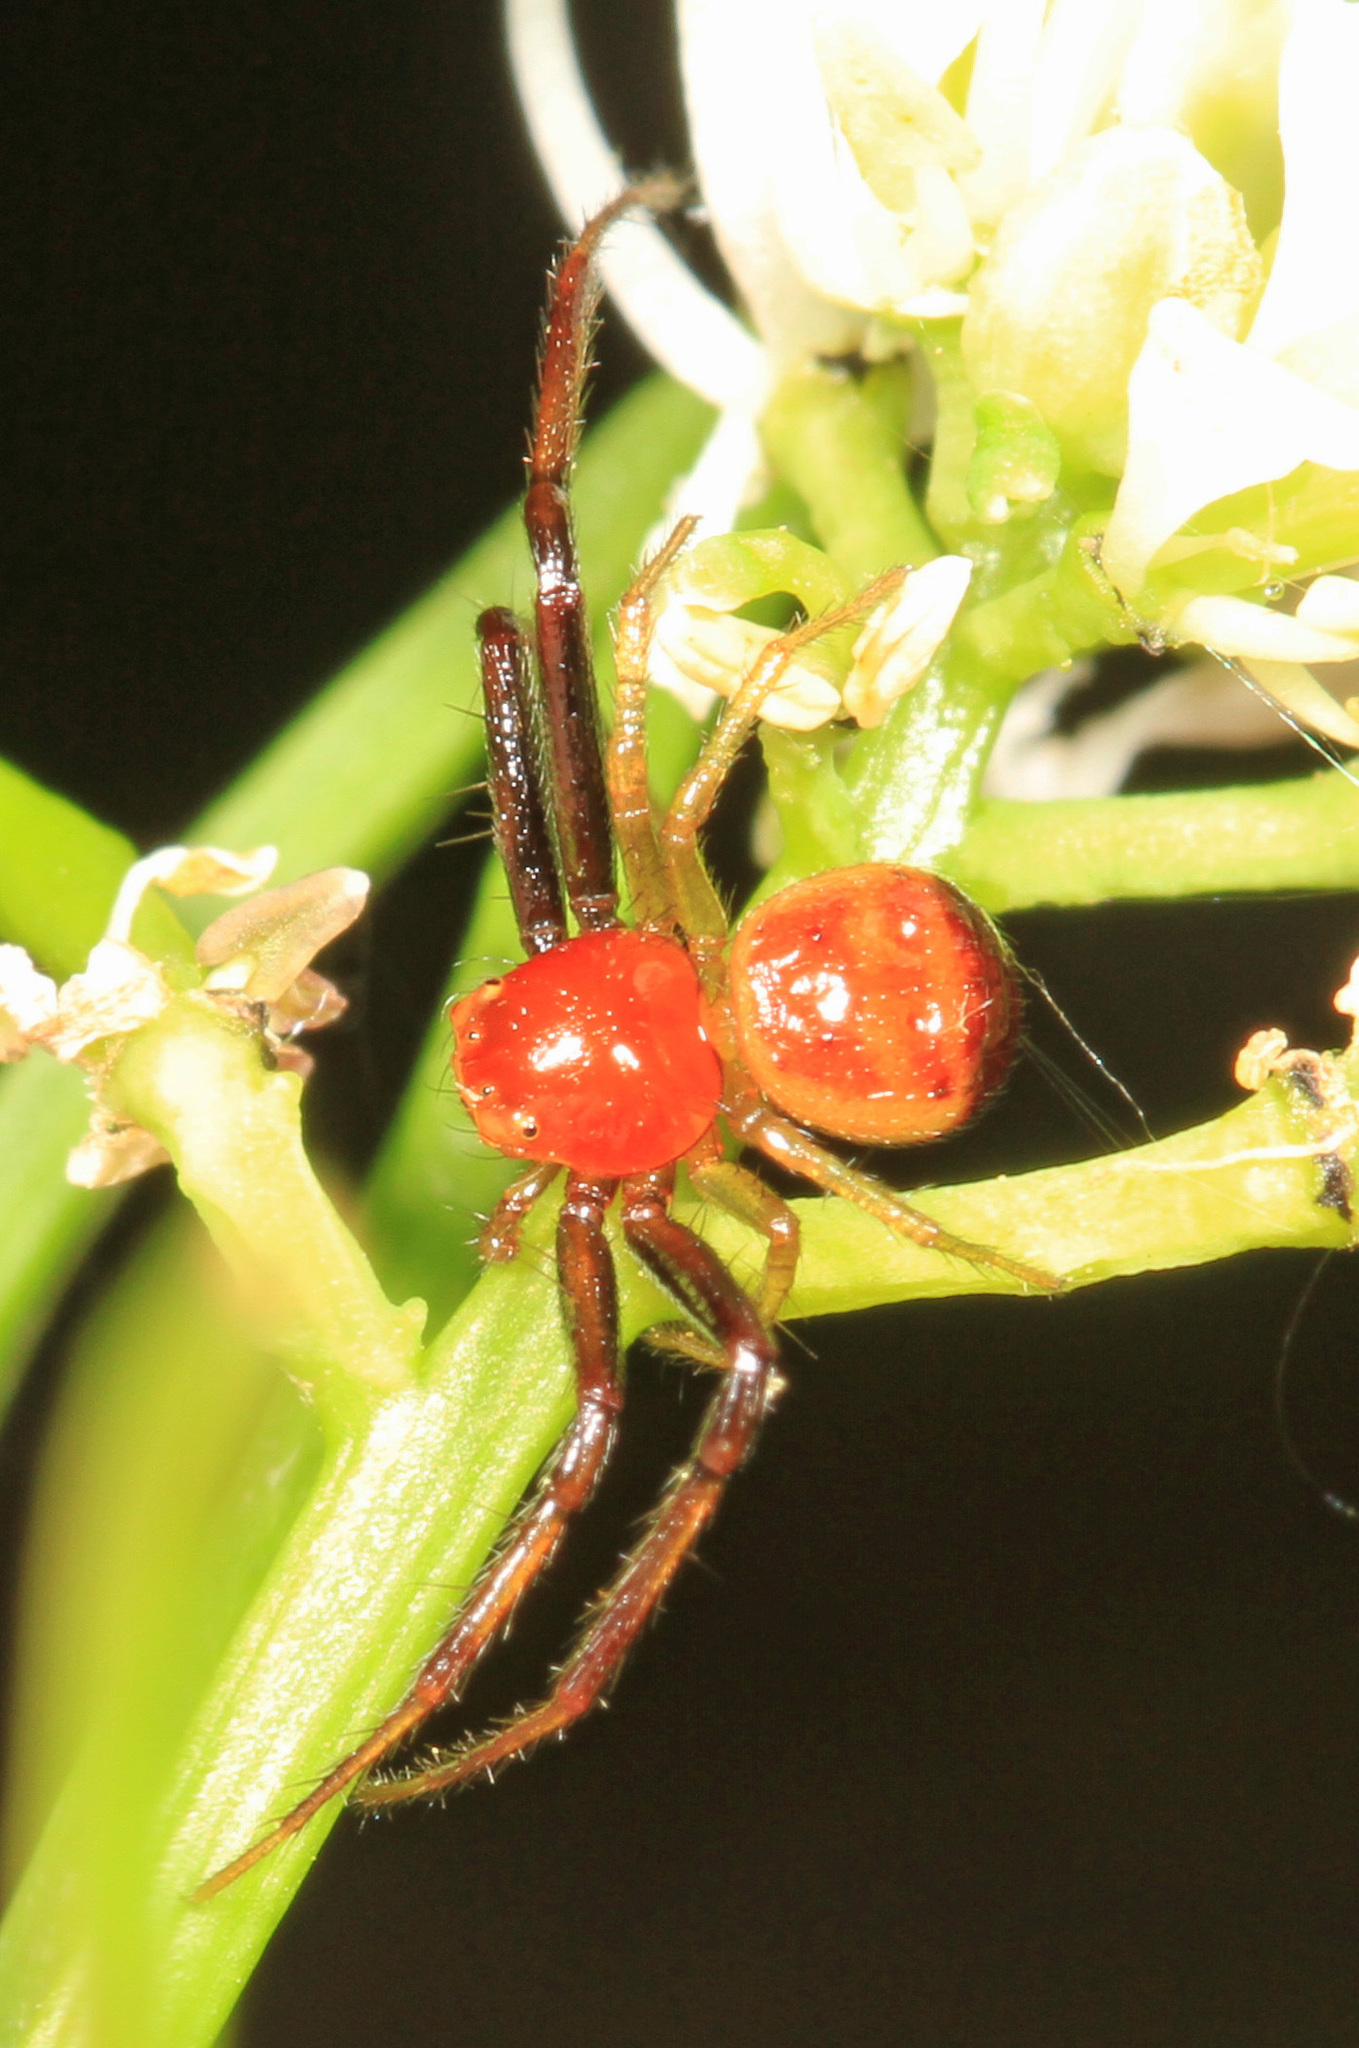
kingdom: Animalia
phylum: Arthropoda
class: Arachnida
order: Araneae
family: Thomisidae
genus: Synema
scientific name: Synema parvulum
